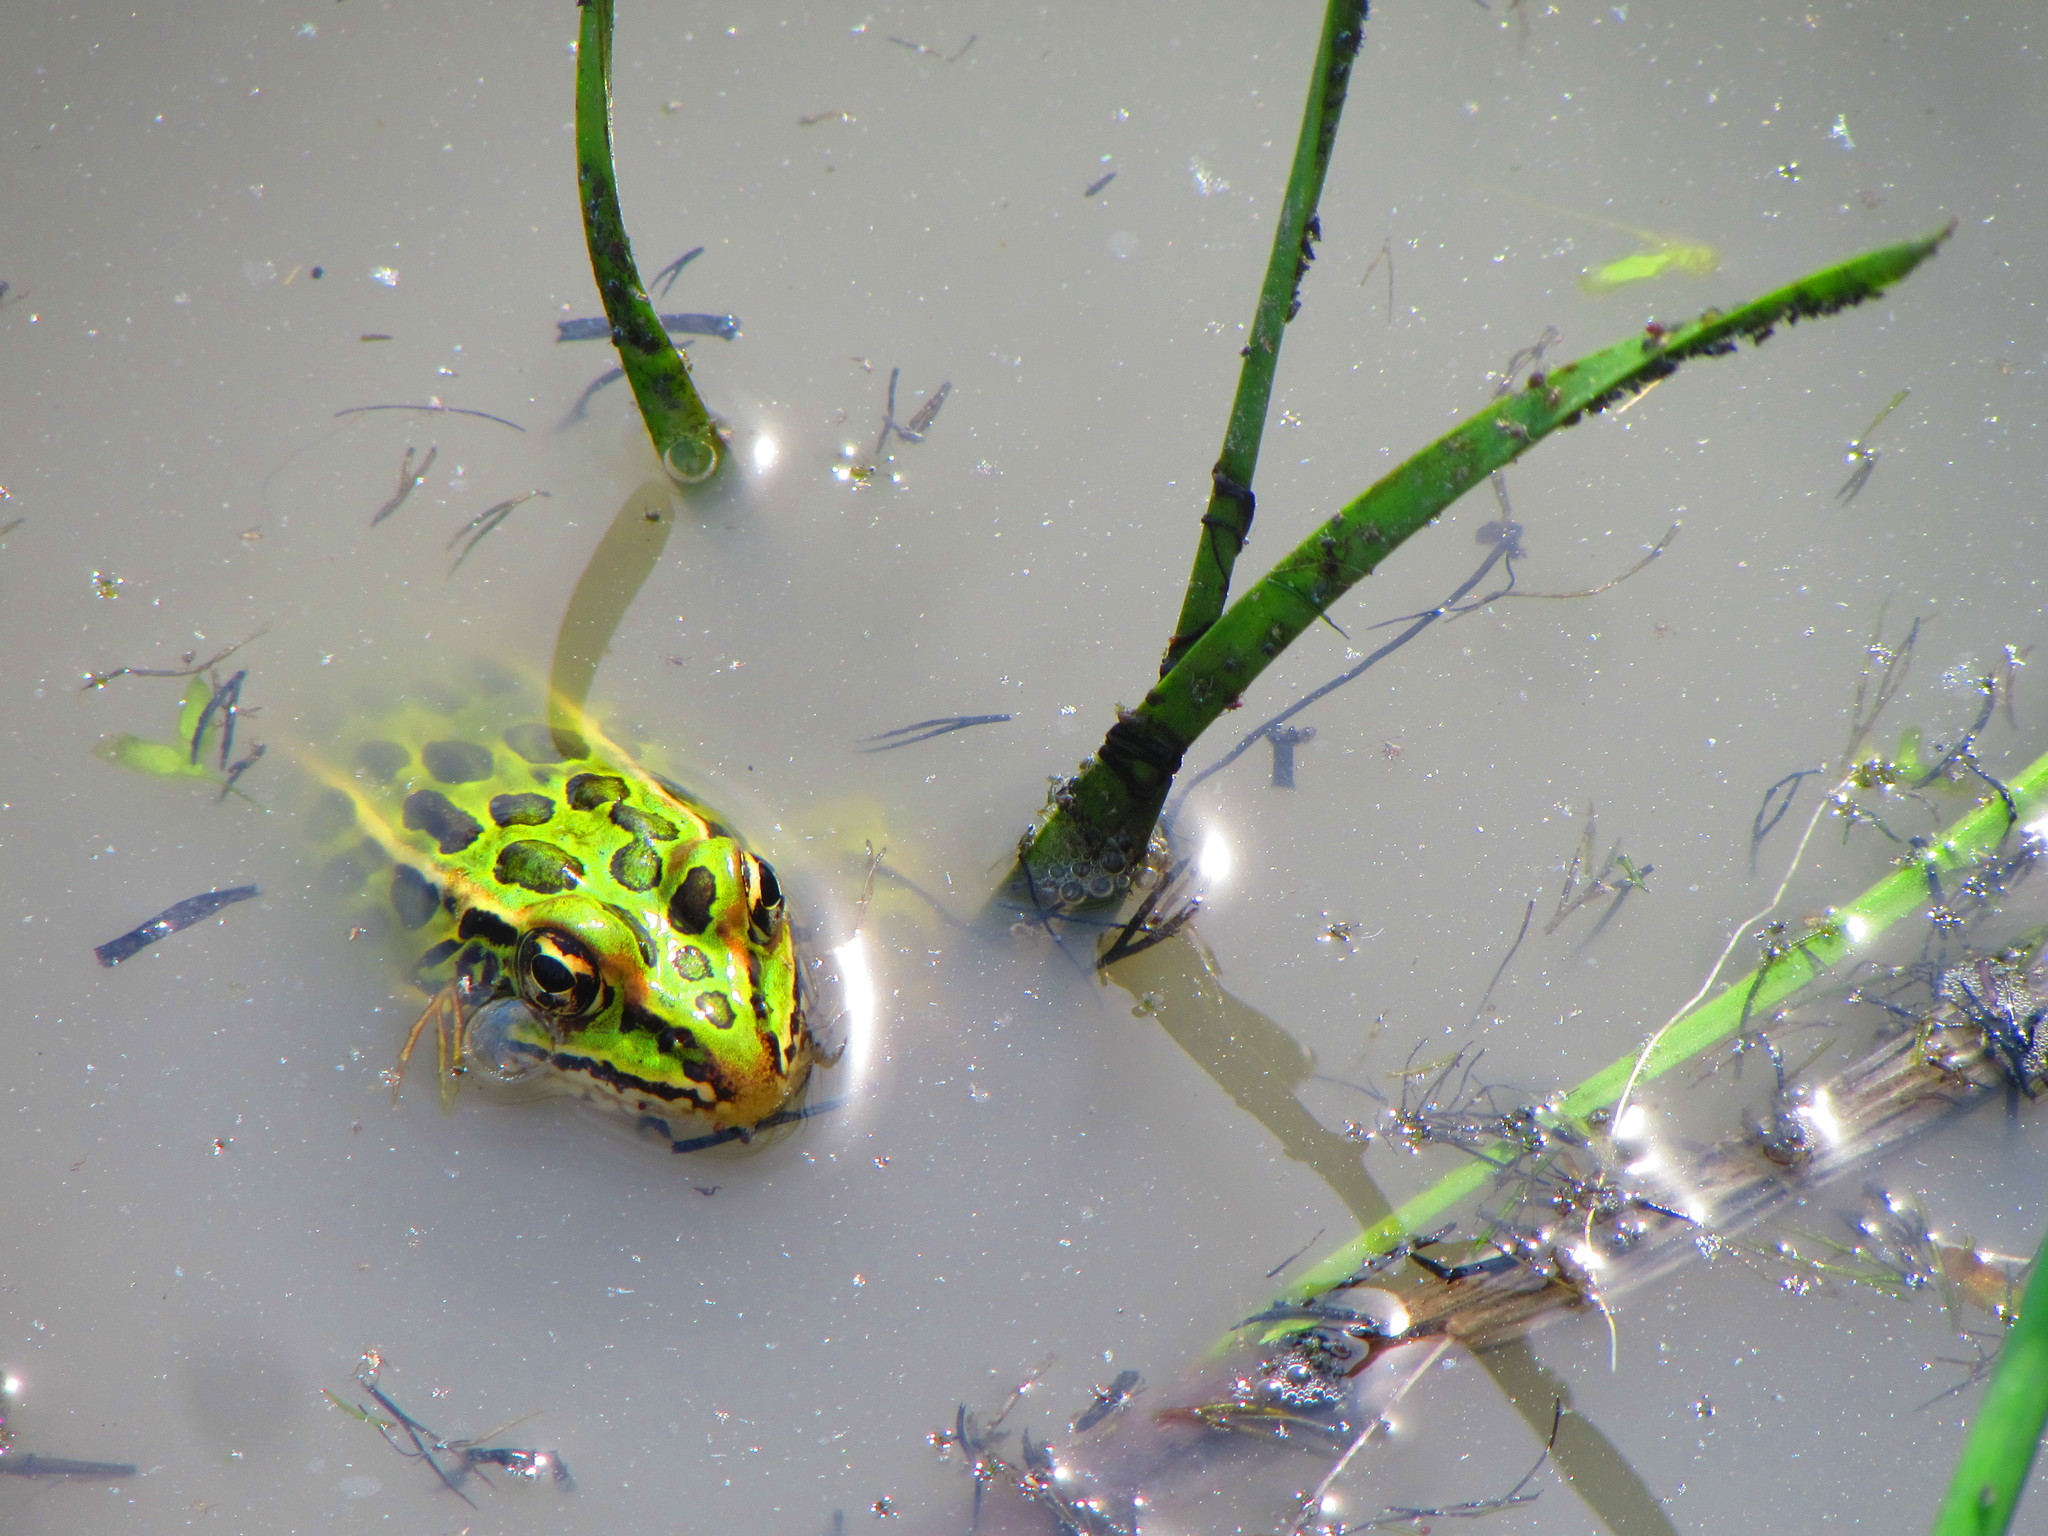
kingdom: Animalia
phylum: Chordata
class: Amphibia
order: Anura
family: Ranidae
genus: Lithobates
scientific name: Lithobates pipiens
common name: Northern leopard frog
